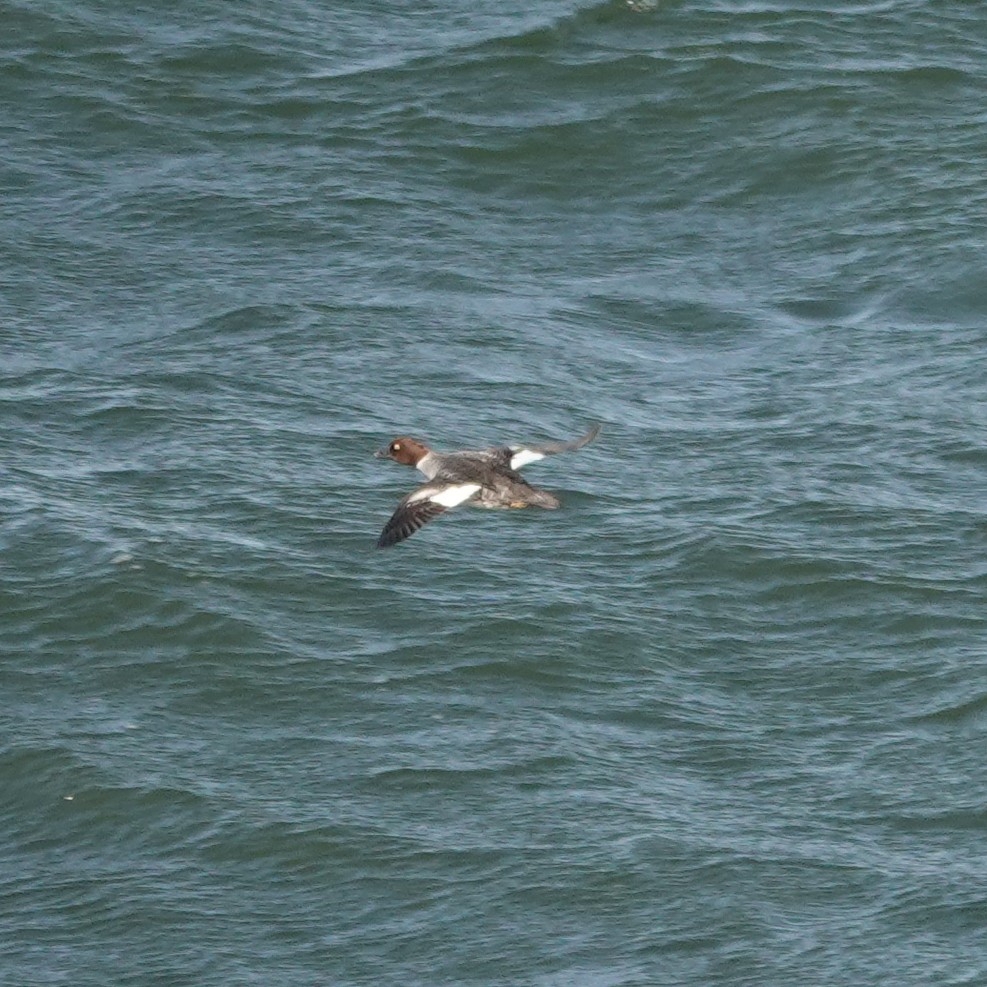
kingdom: Animalia
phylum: Chordata
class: Aves
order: Anseriformes
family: Anatidae
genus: Bucephala
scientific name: Bucephala clangula
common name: Common goldeneye
